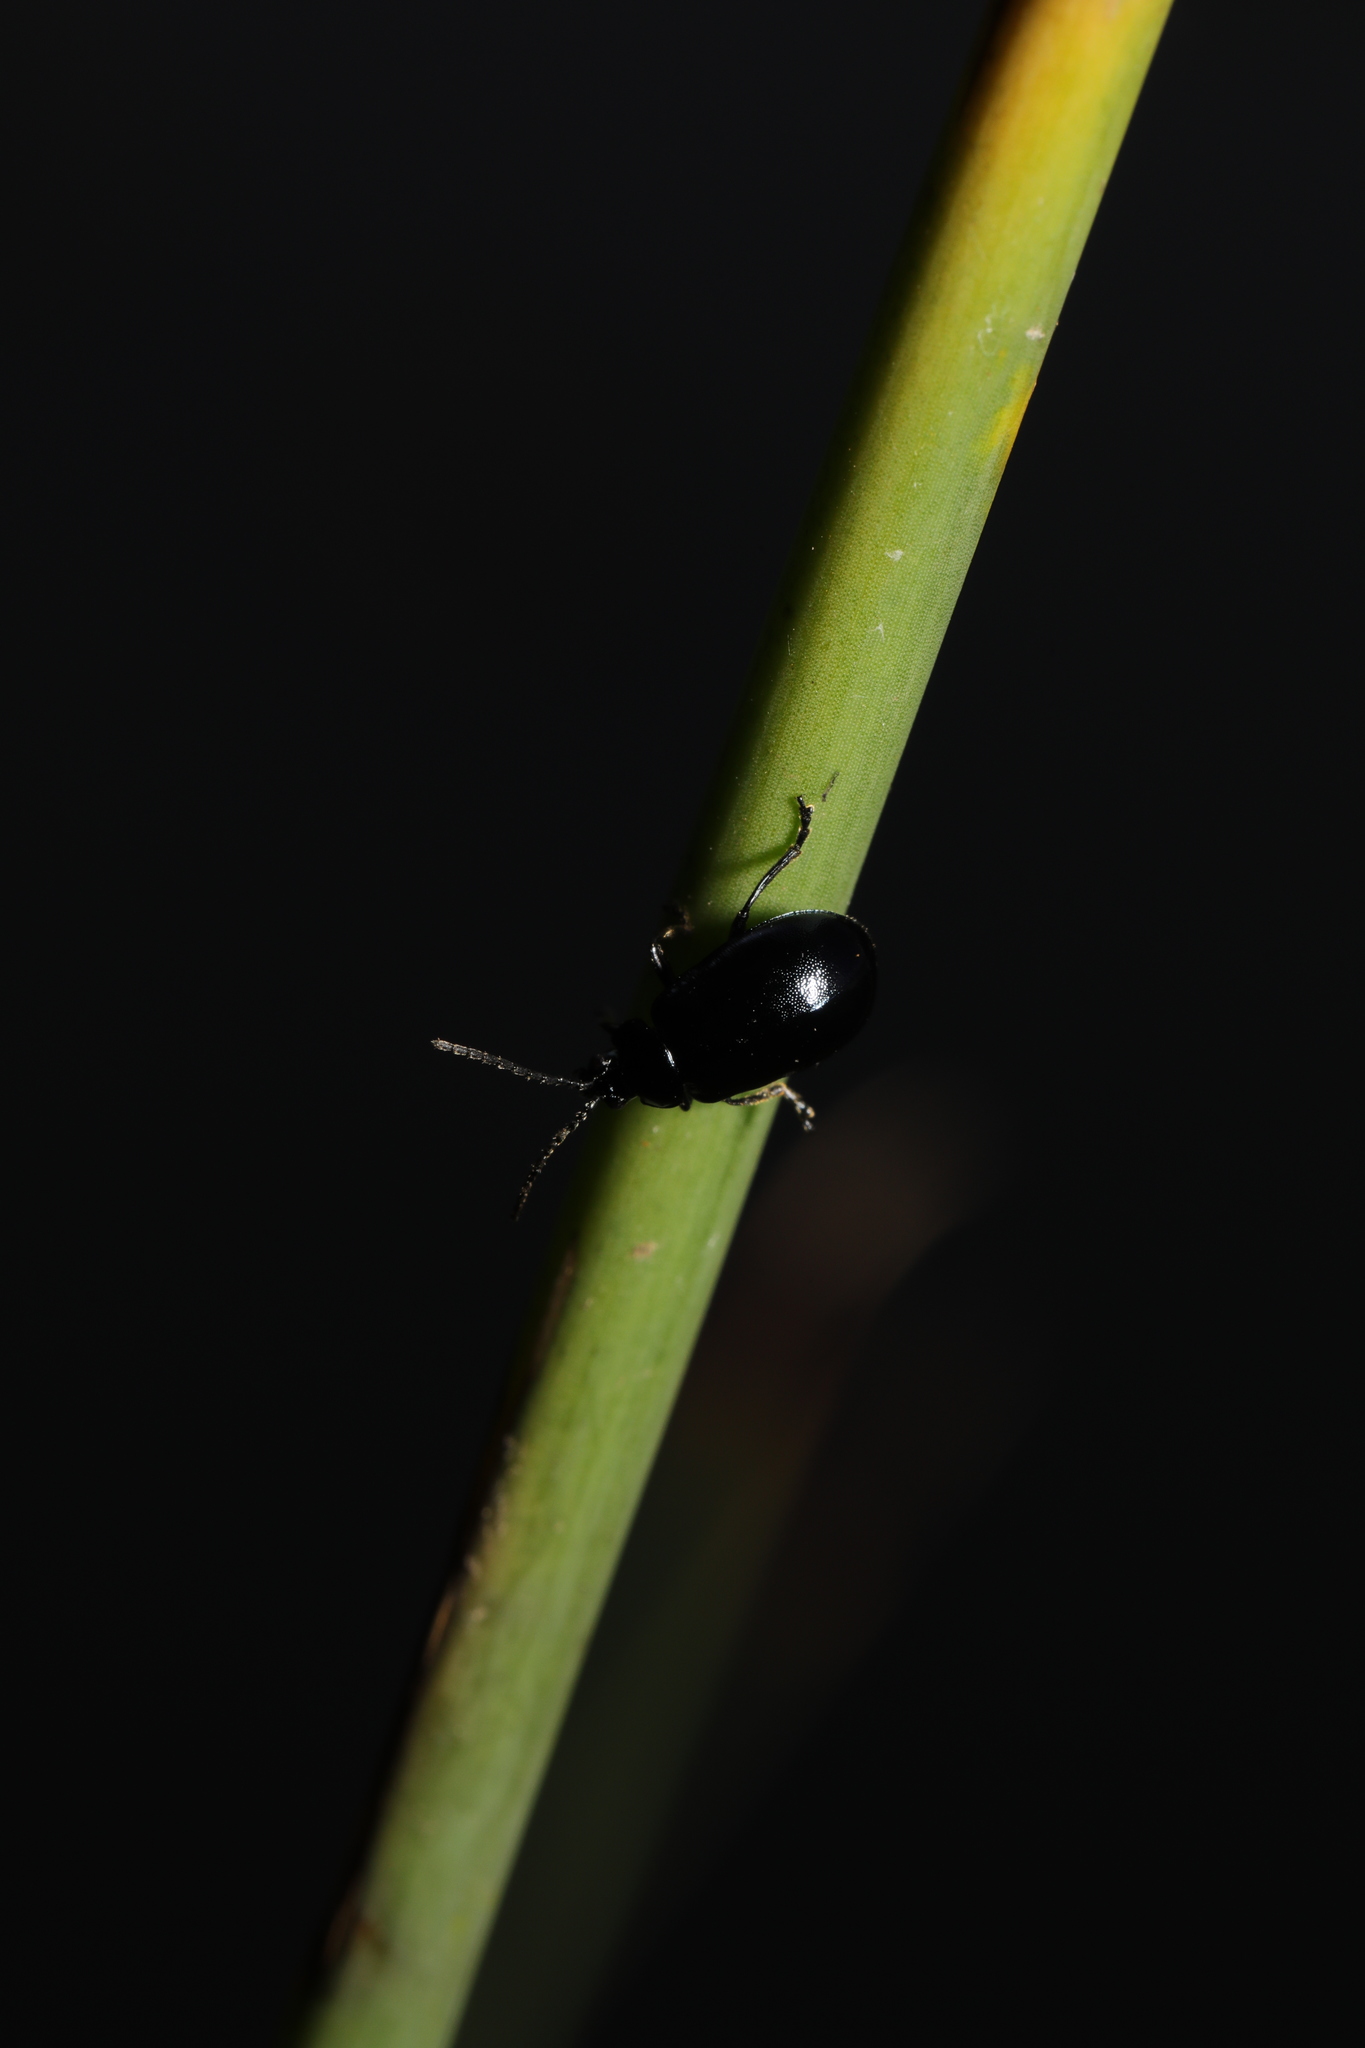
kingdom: Animalia
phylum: Arthropoda
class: Insecta
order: Coleoptera
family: Chrysomelidae
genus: Agelastica
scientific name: Agelastica alni
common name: Alder leaf beetle
